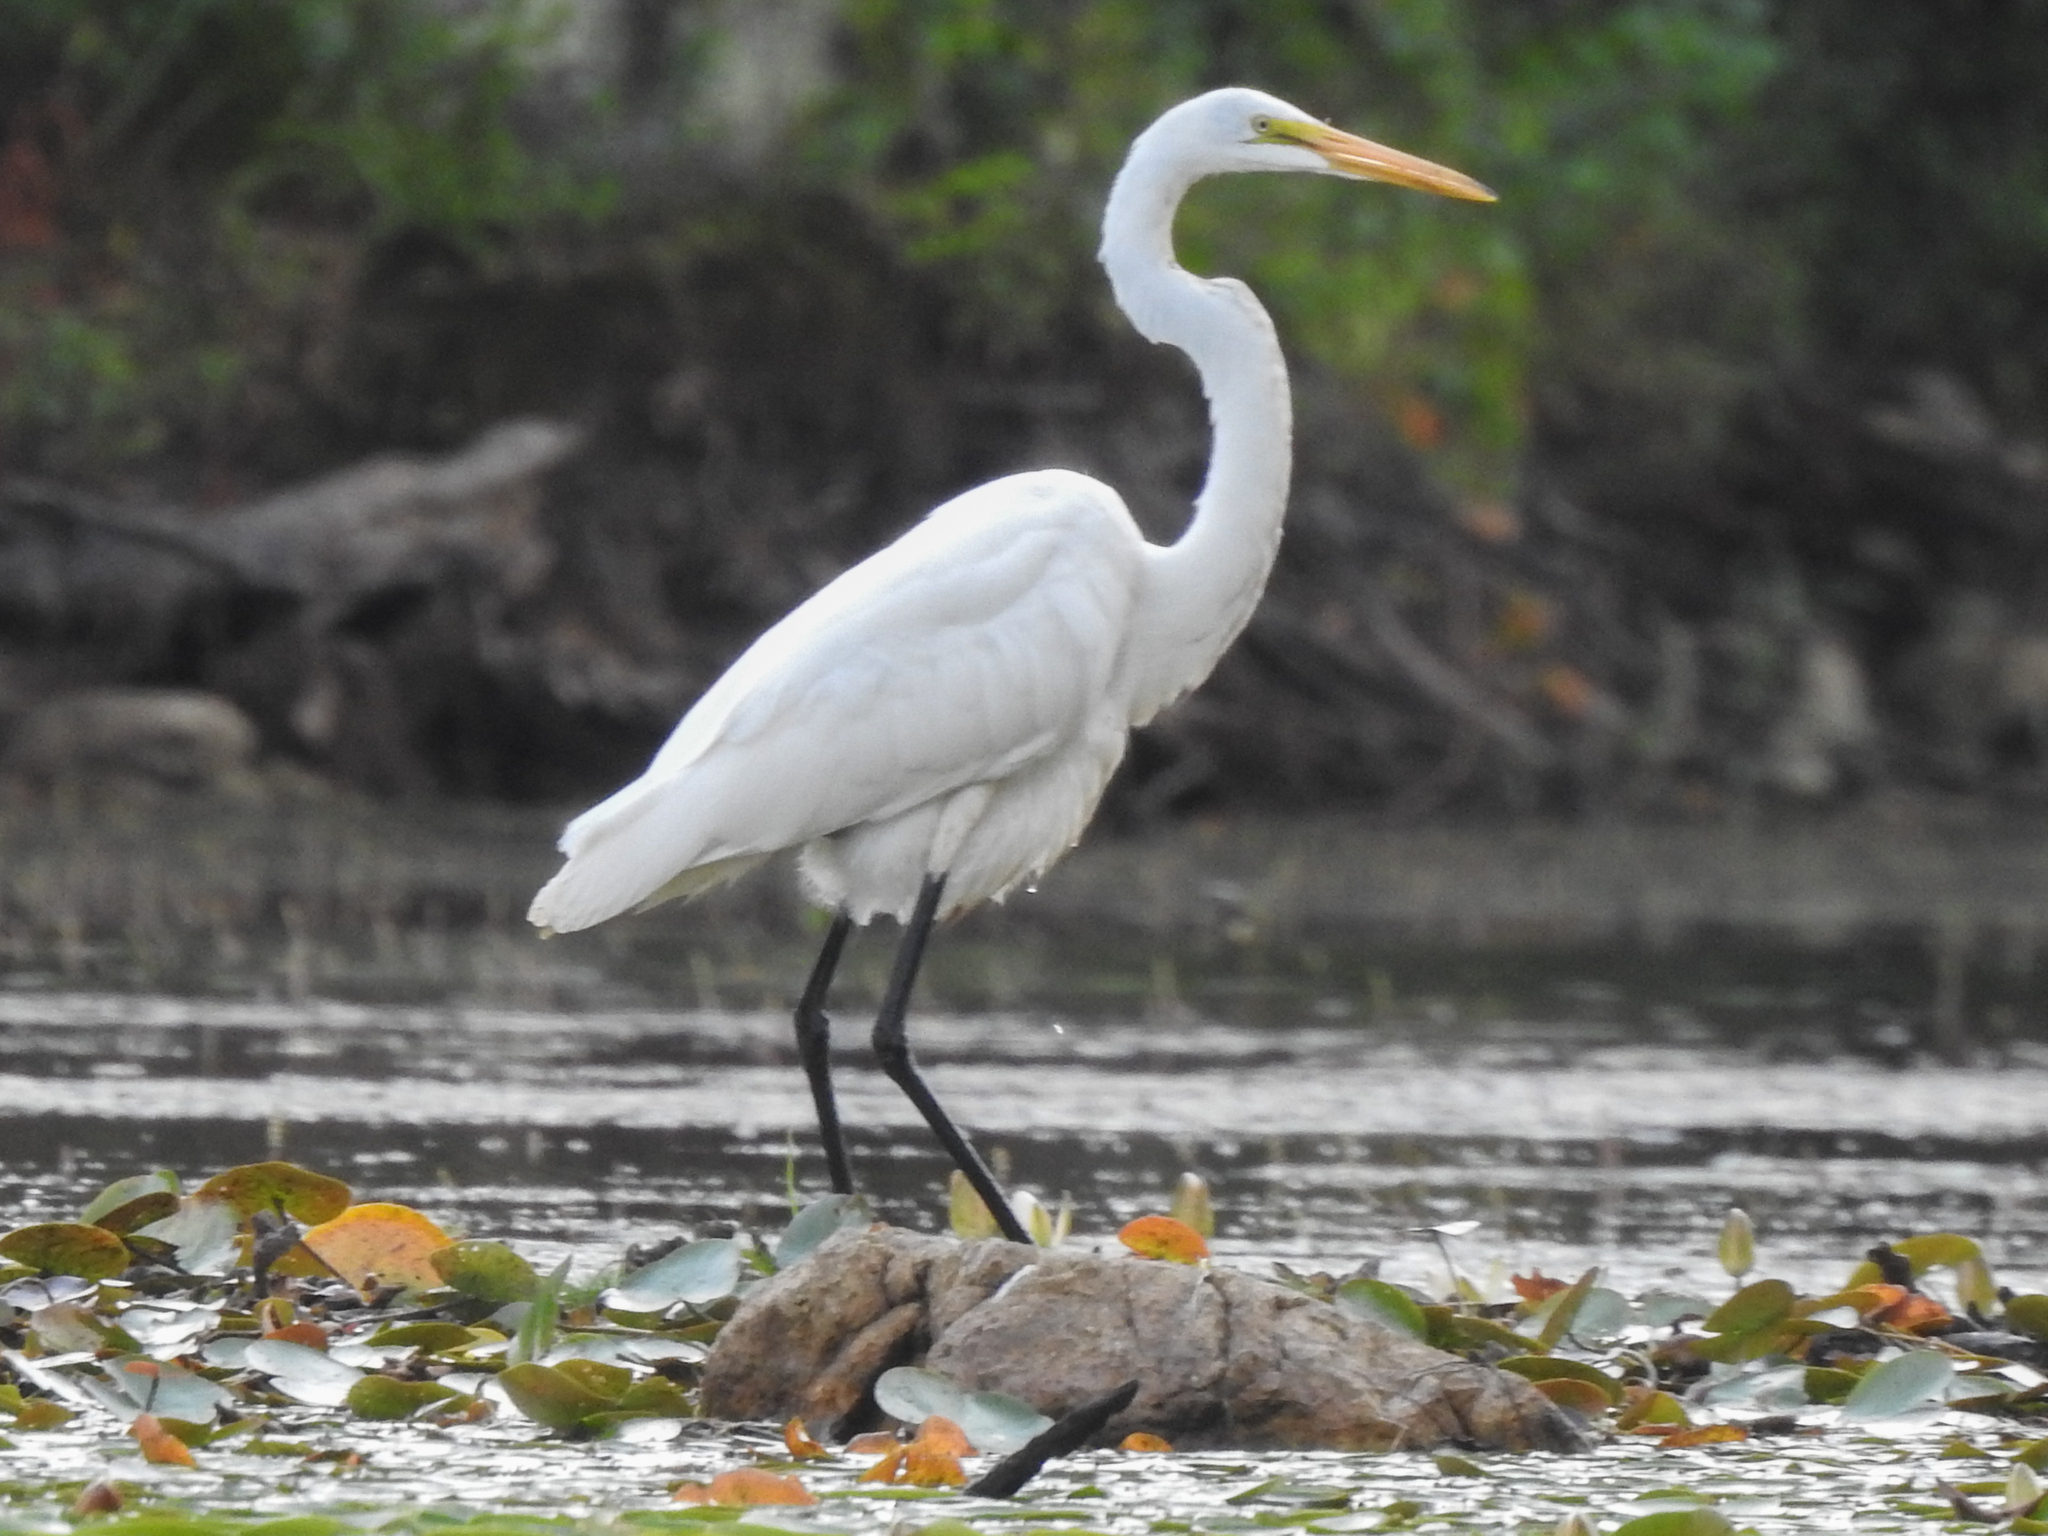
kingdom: Animalia
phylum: Chordata
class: Aves
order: Pelecaniformes
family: Ardeidae
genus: Ardea
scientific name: Ardea alba
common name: Great egret
